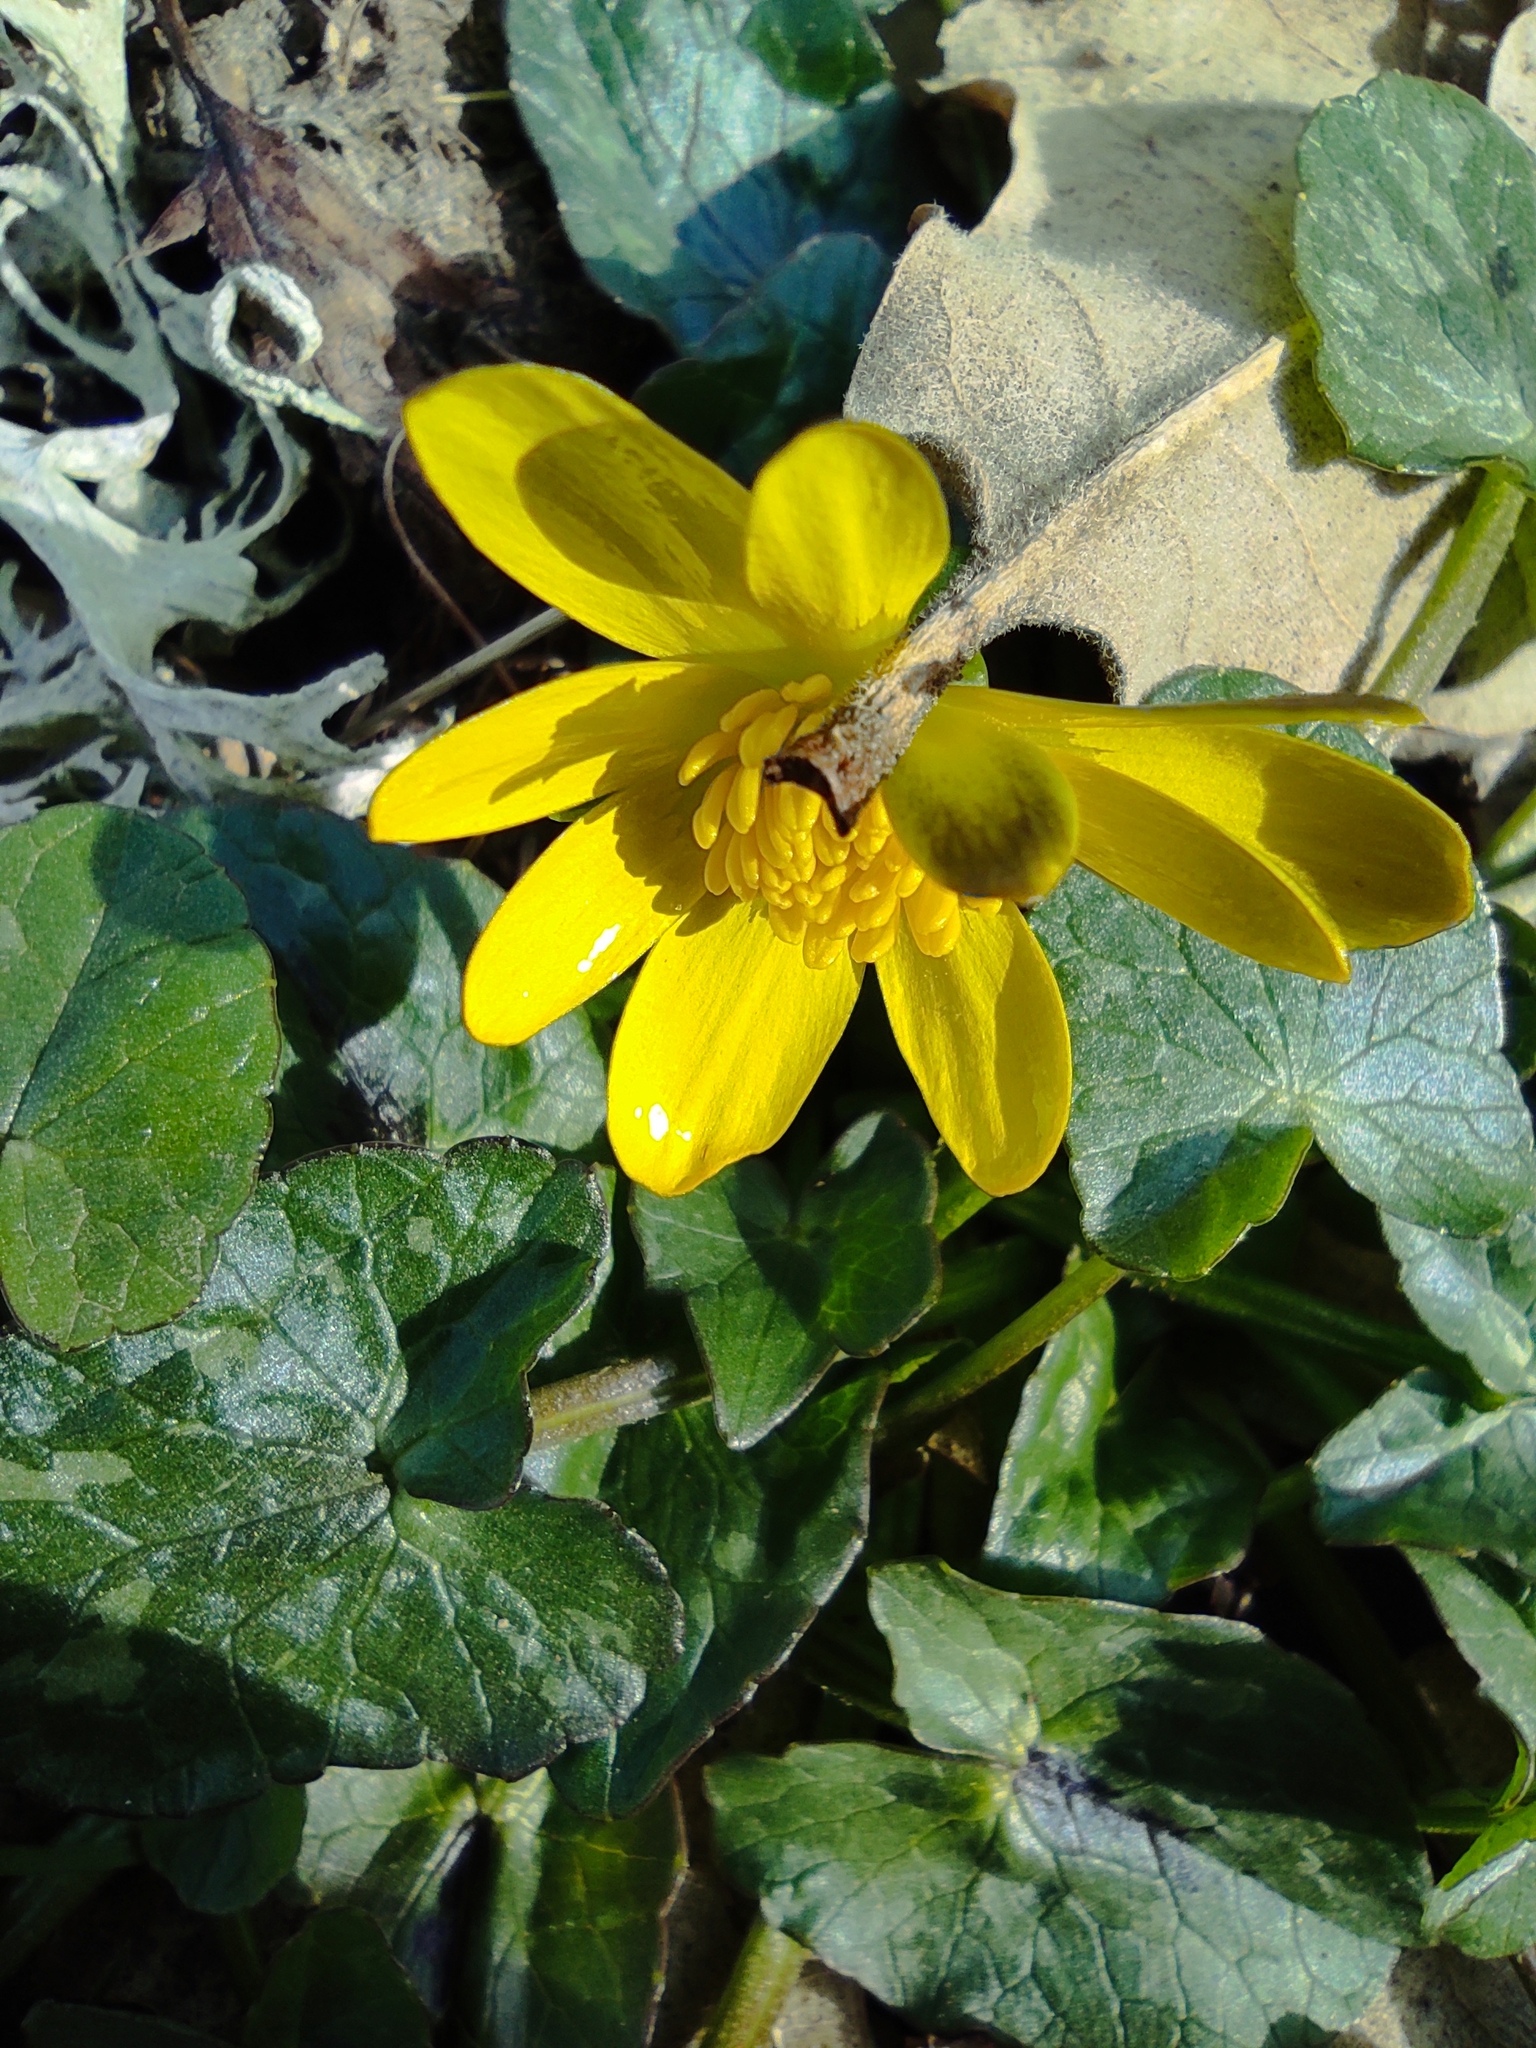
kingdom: Plantae
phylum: Tracheophyta
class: Magnoliopsida
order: Ranunculales
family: Ranunculaceae
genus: Ficaria
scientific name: Ficaria verna
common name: Lesser celandine
